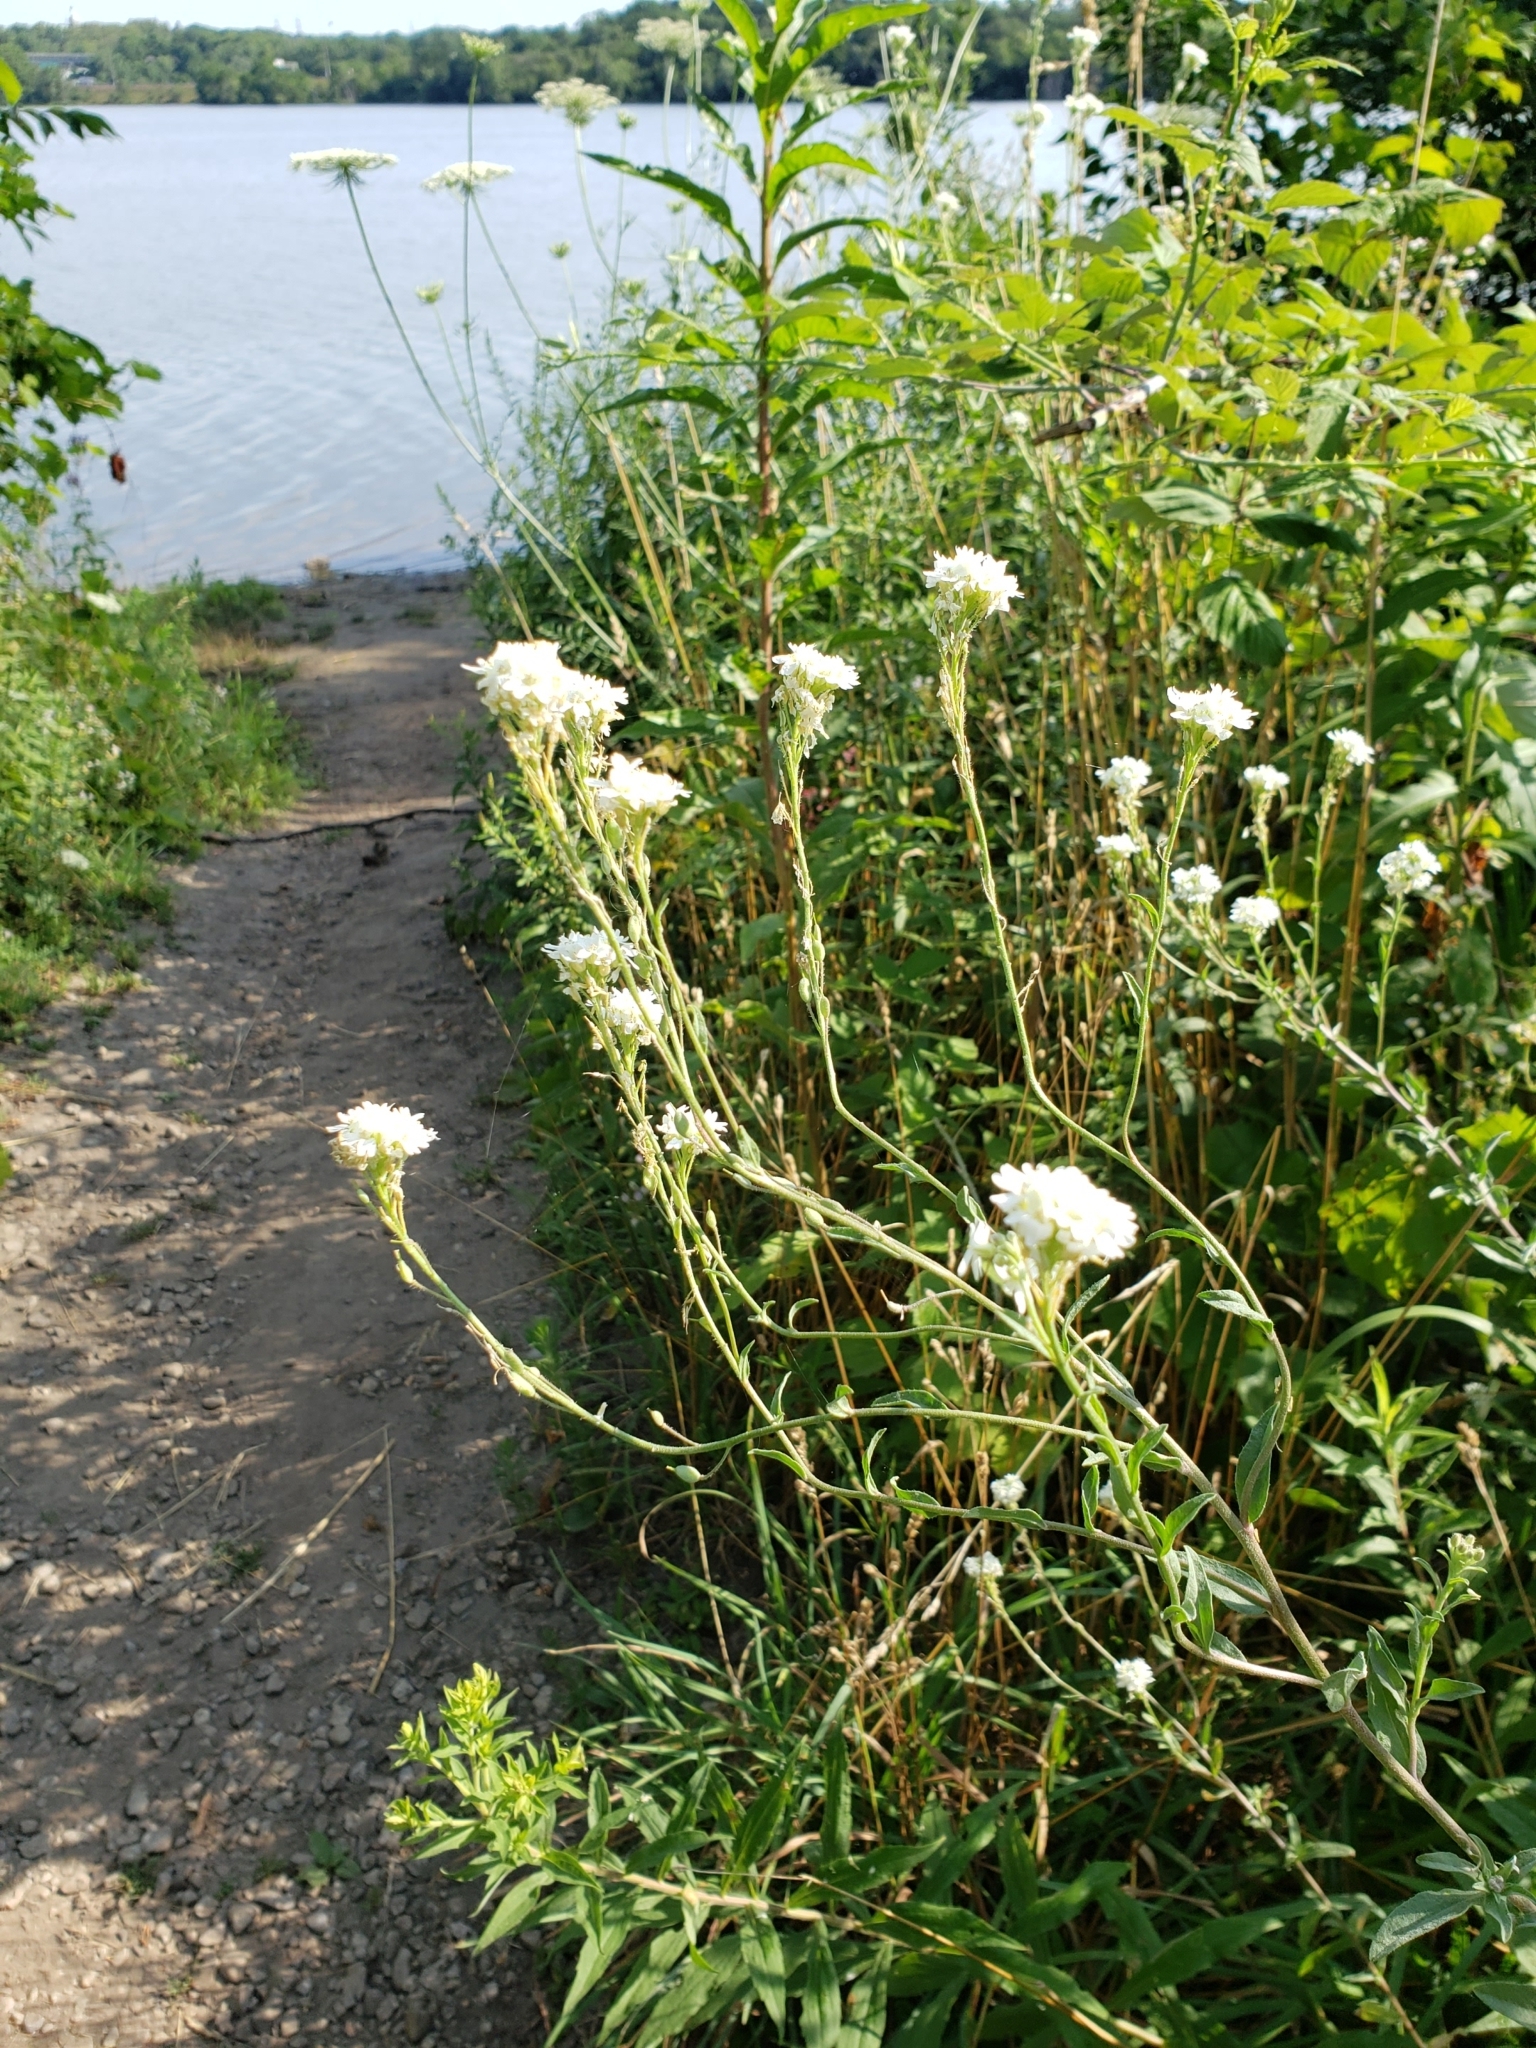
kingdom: Plantae
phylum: Tracheophyta
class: Magnoliopsida
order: Brassicales
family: Brassicaceae
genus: Berteroa
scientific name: Berteroa incana
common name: Hoary alison
